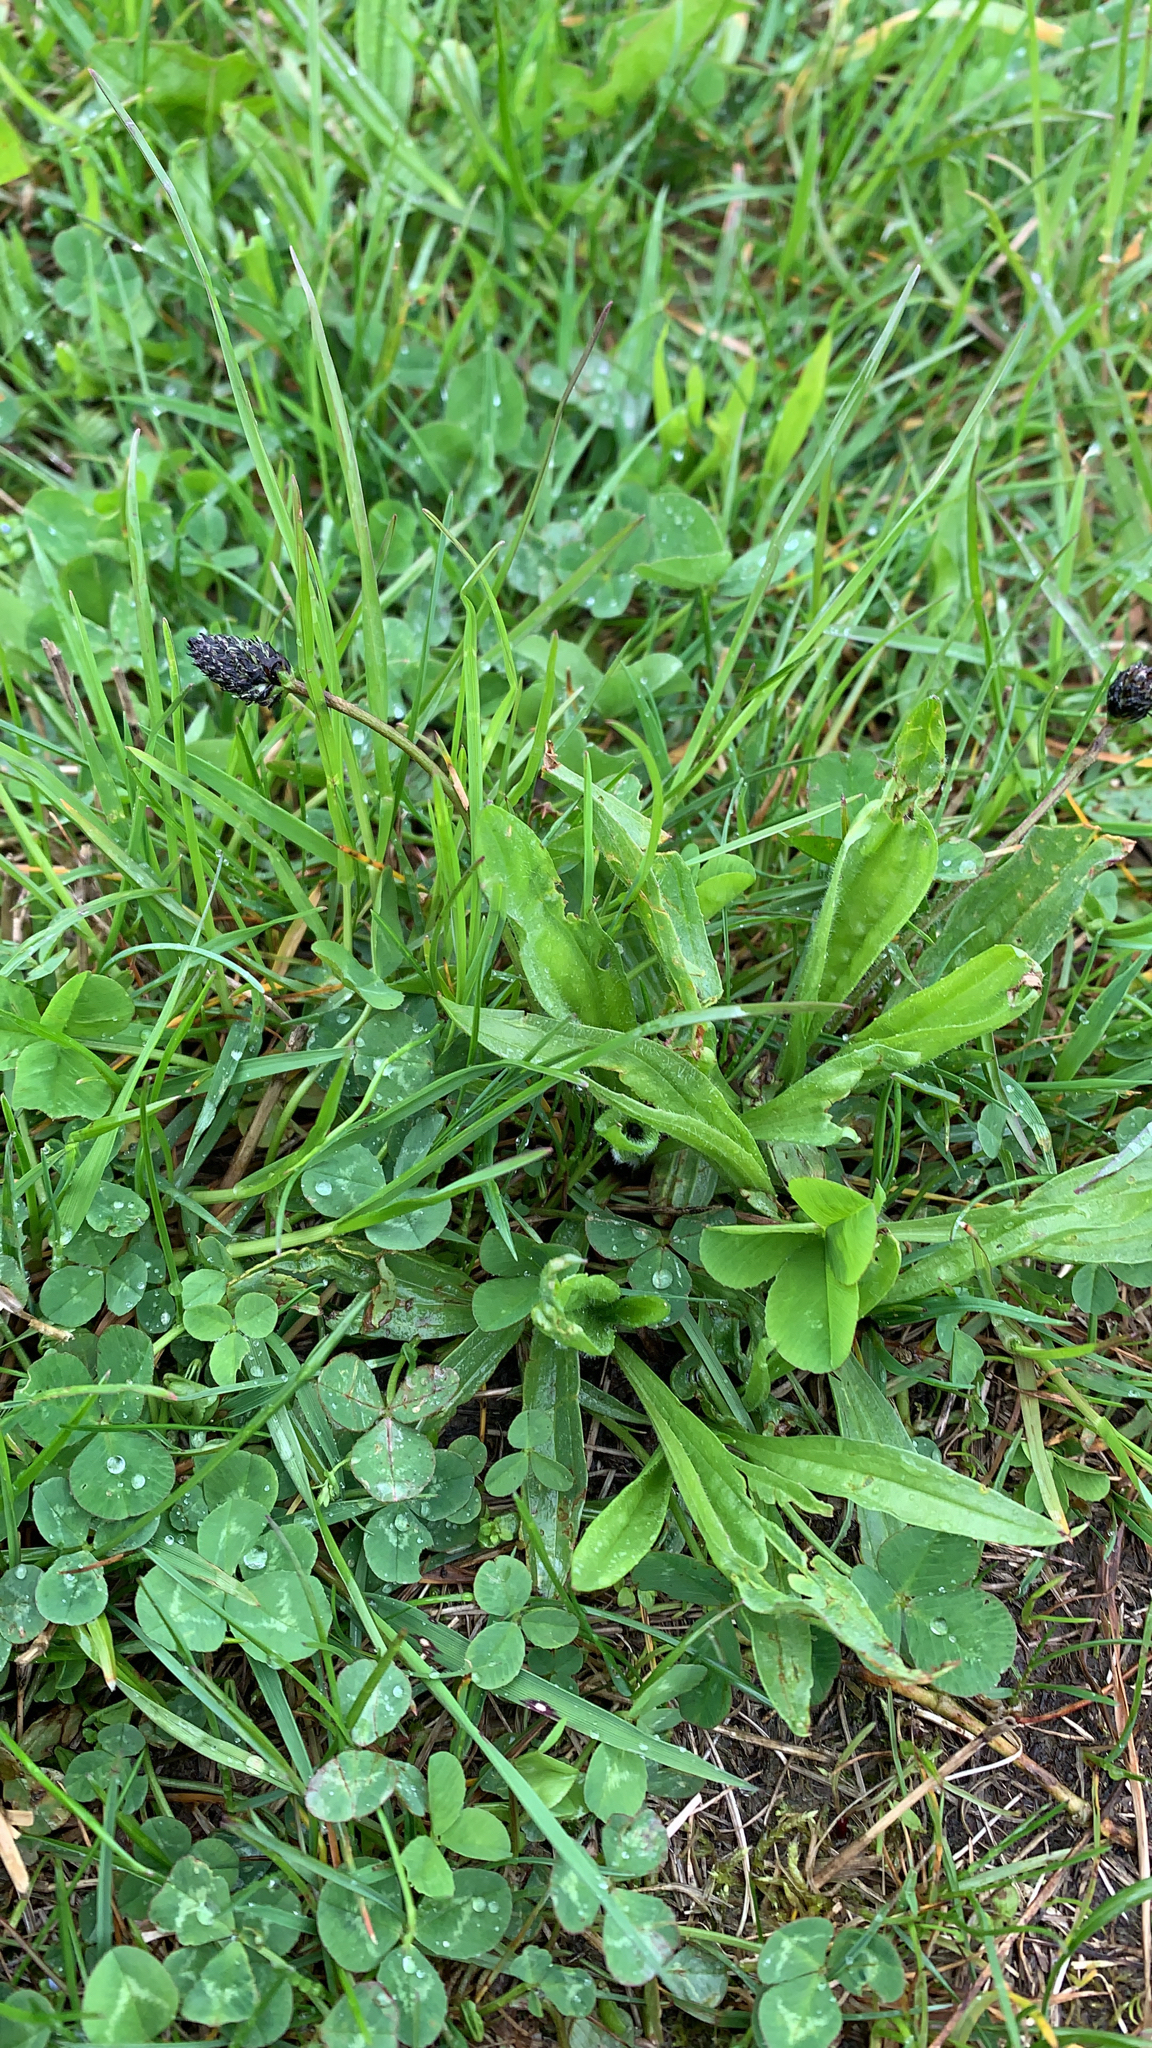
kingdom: Plantae
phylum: Tracheophyta
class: Magnoliopsida
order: Lamiales
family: Plantaginaceae
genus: Plantago
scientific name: Plantago lanceolata
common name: Ribwort plantain
